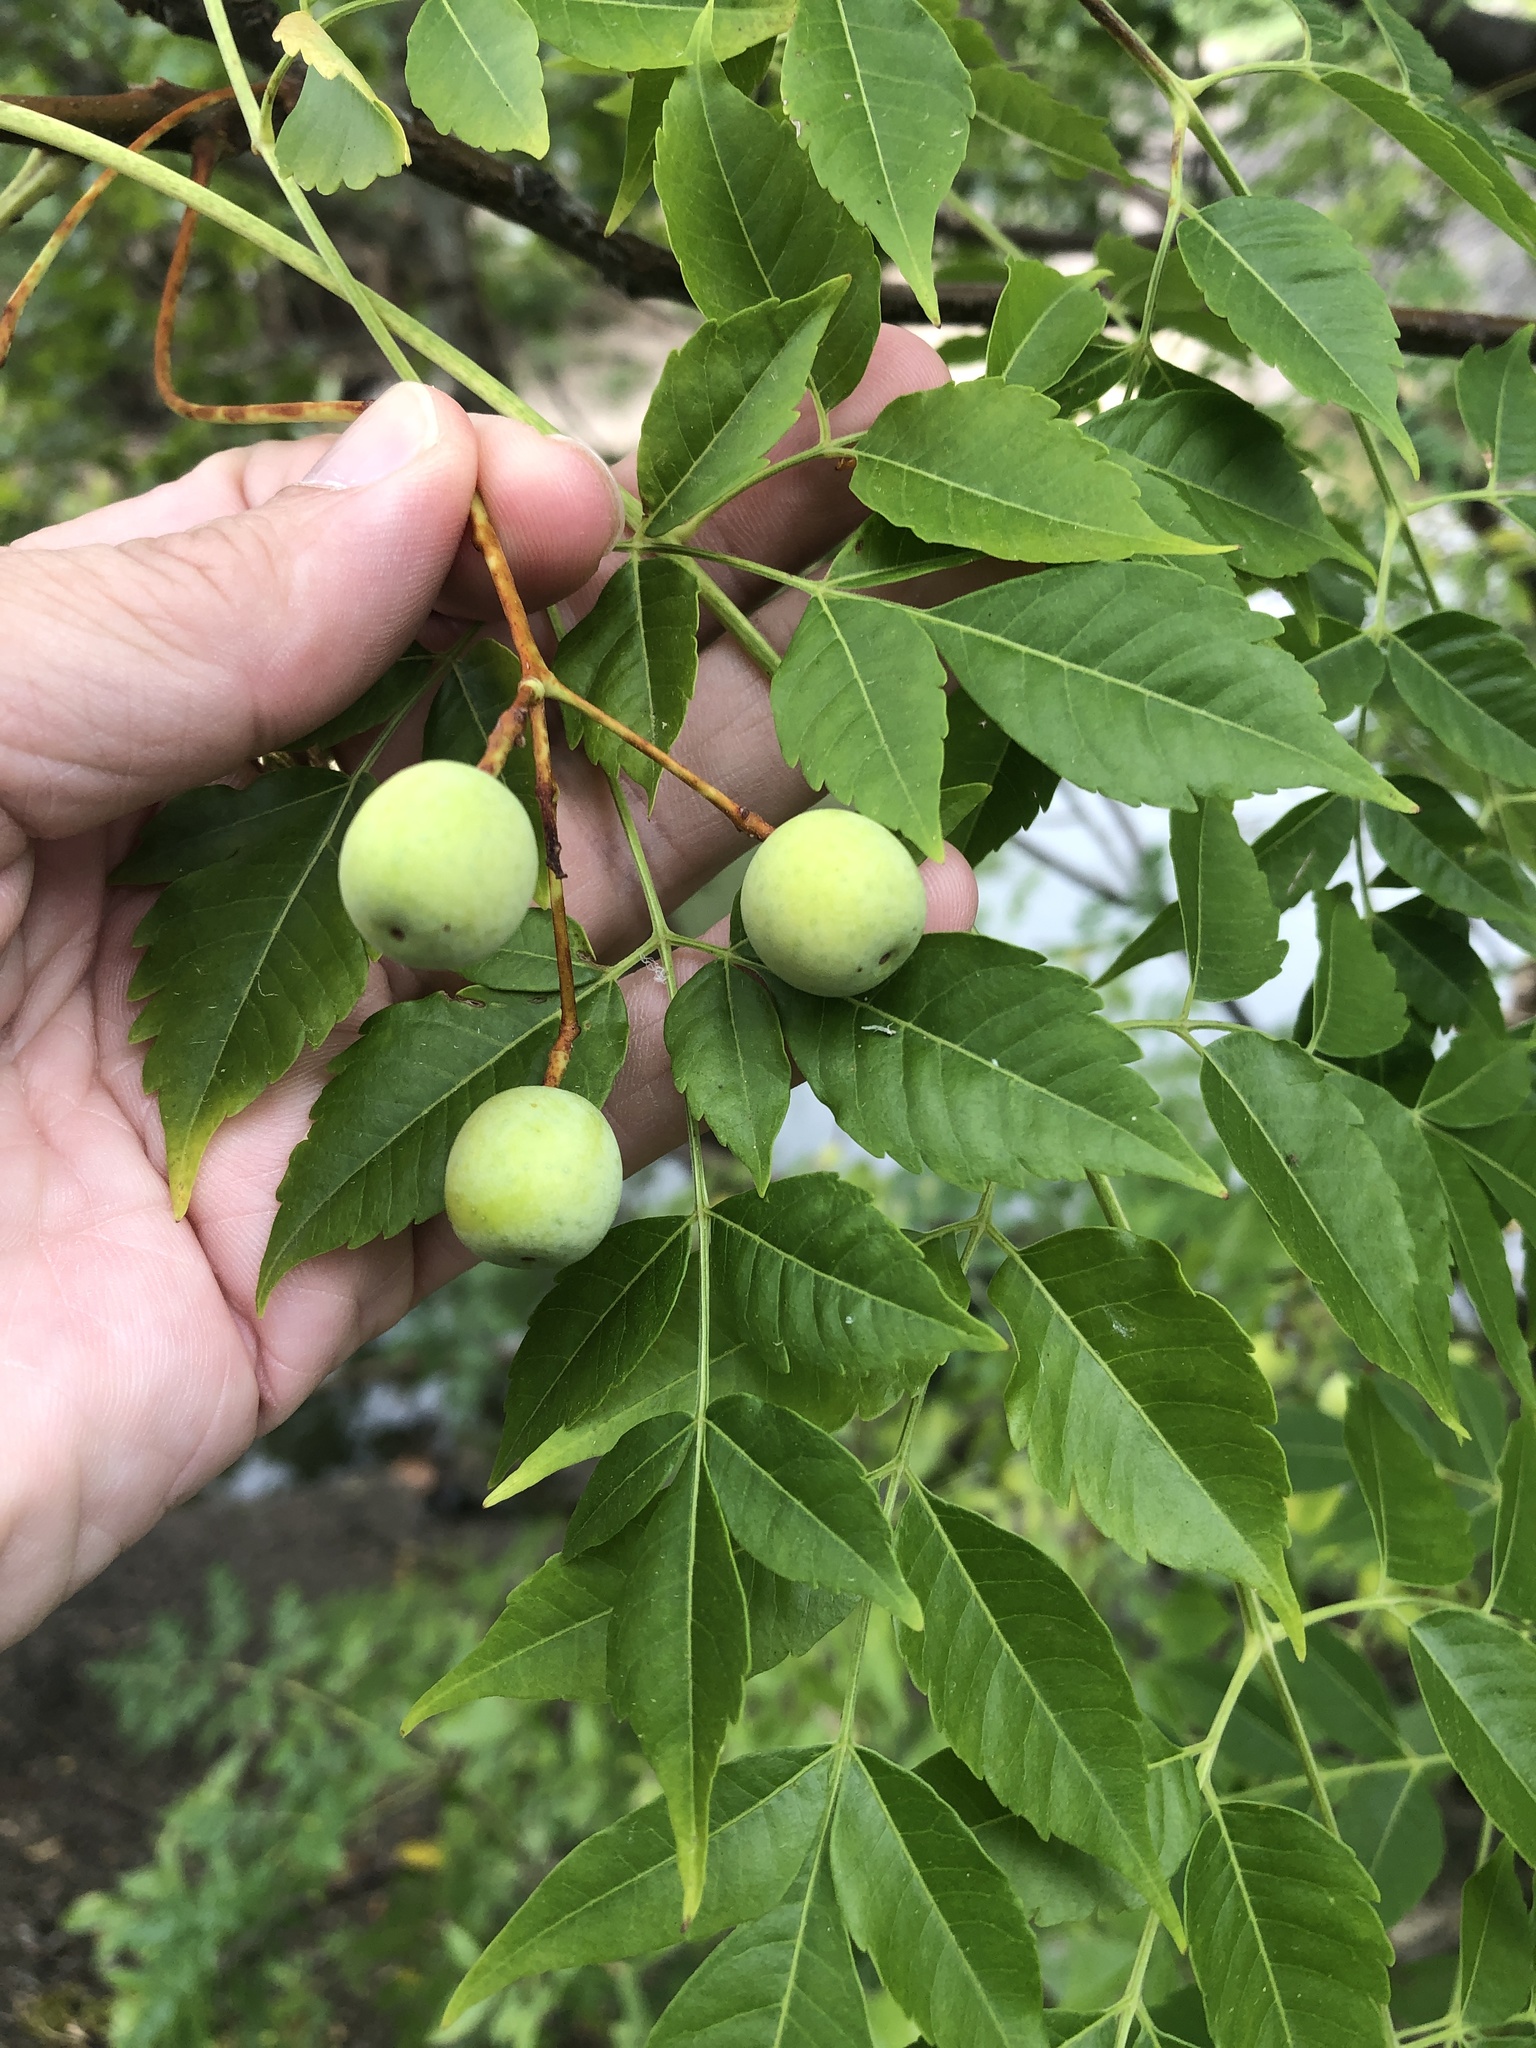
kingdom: Plantae
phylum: Tracheophyta
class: Magnoliopsida
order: Sapindales
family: Meliaceae
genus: Melia
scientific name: Melia azedarach
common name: Chinaberrytree
